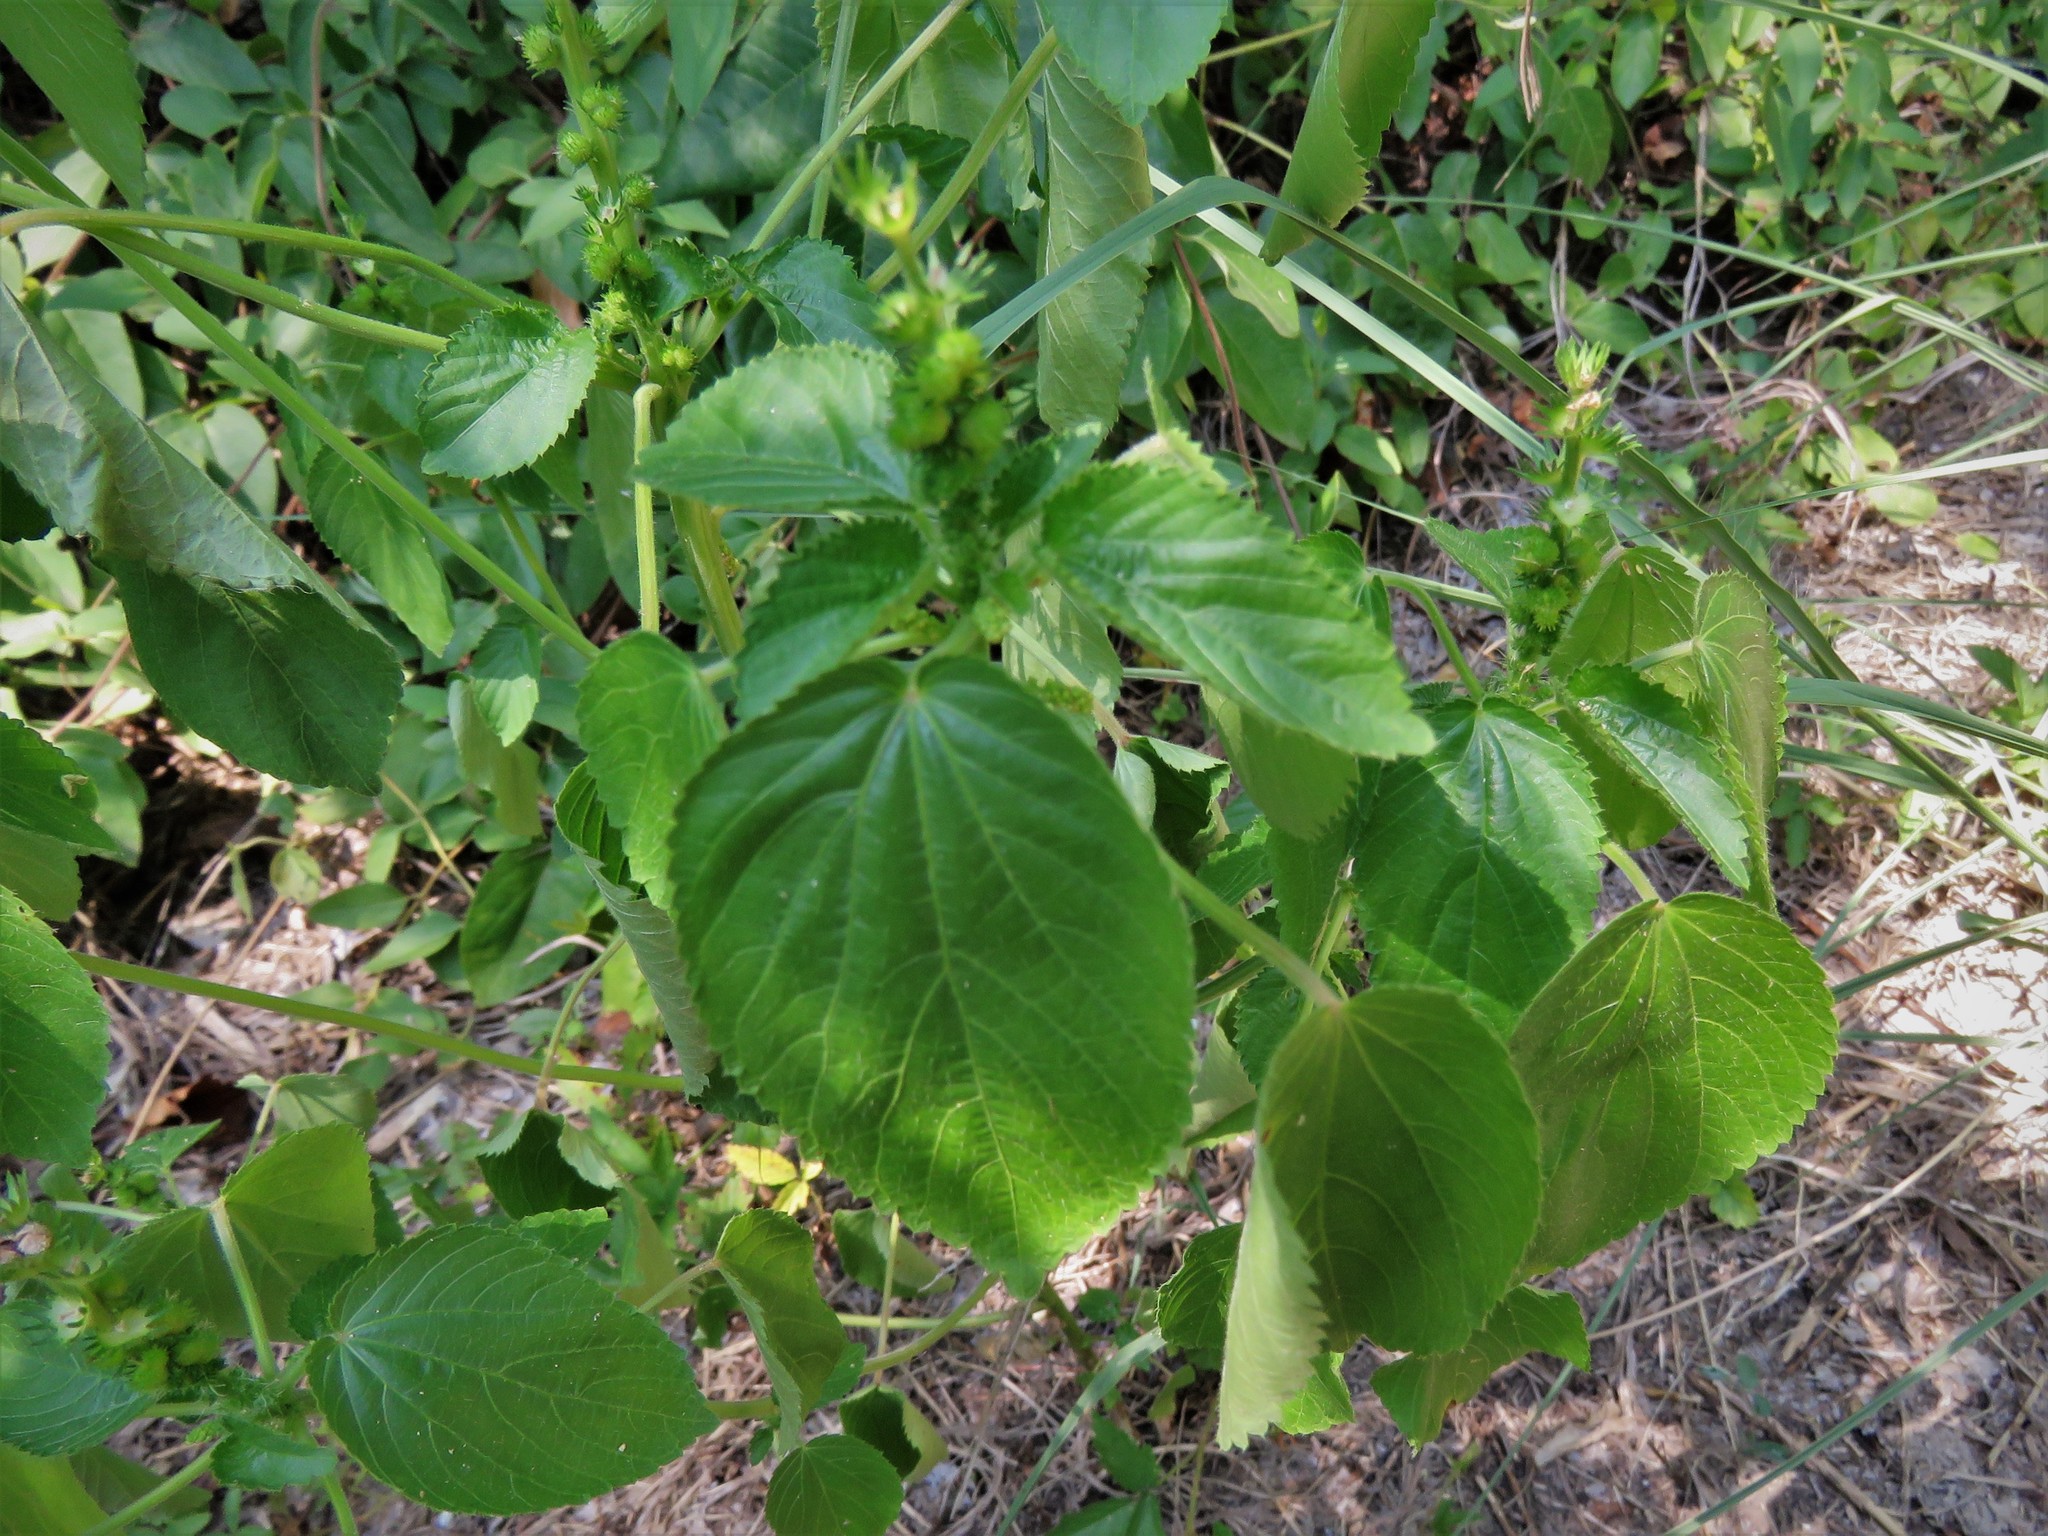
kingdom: Plantae
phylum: Tracheophyta
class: Magnoliopsida
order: Malpighiales
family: Euphorbiaceae
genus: Acalypha
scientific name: Acalypha ostryifolia
